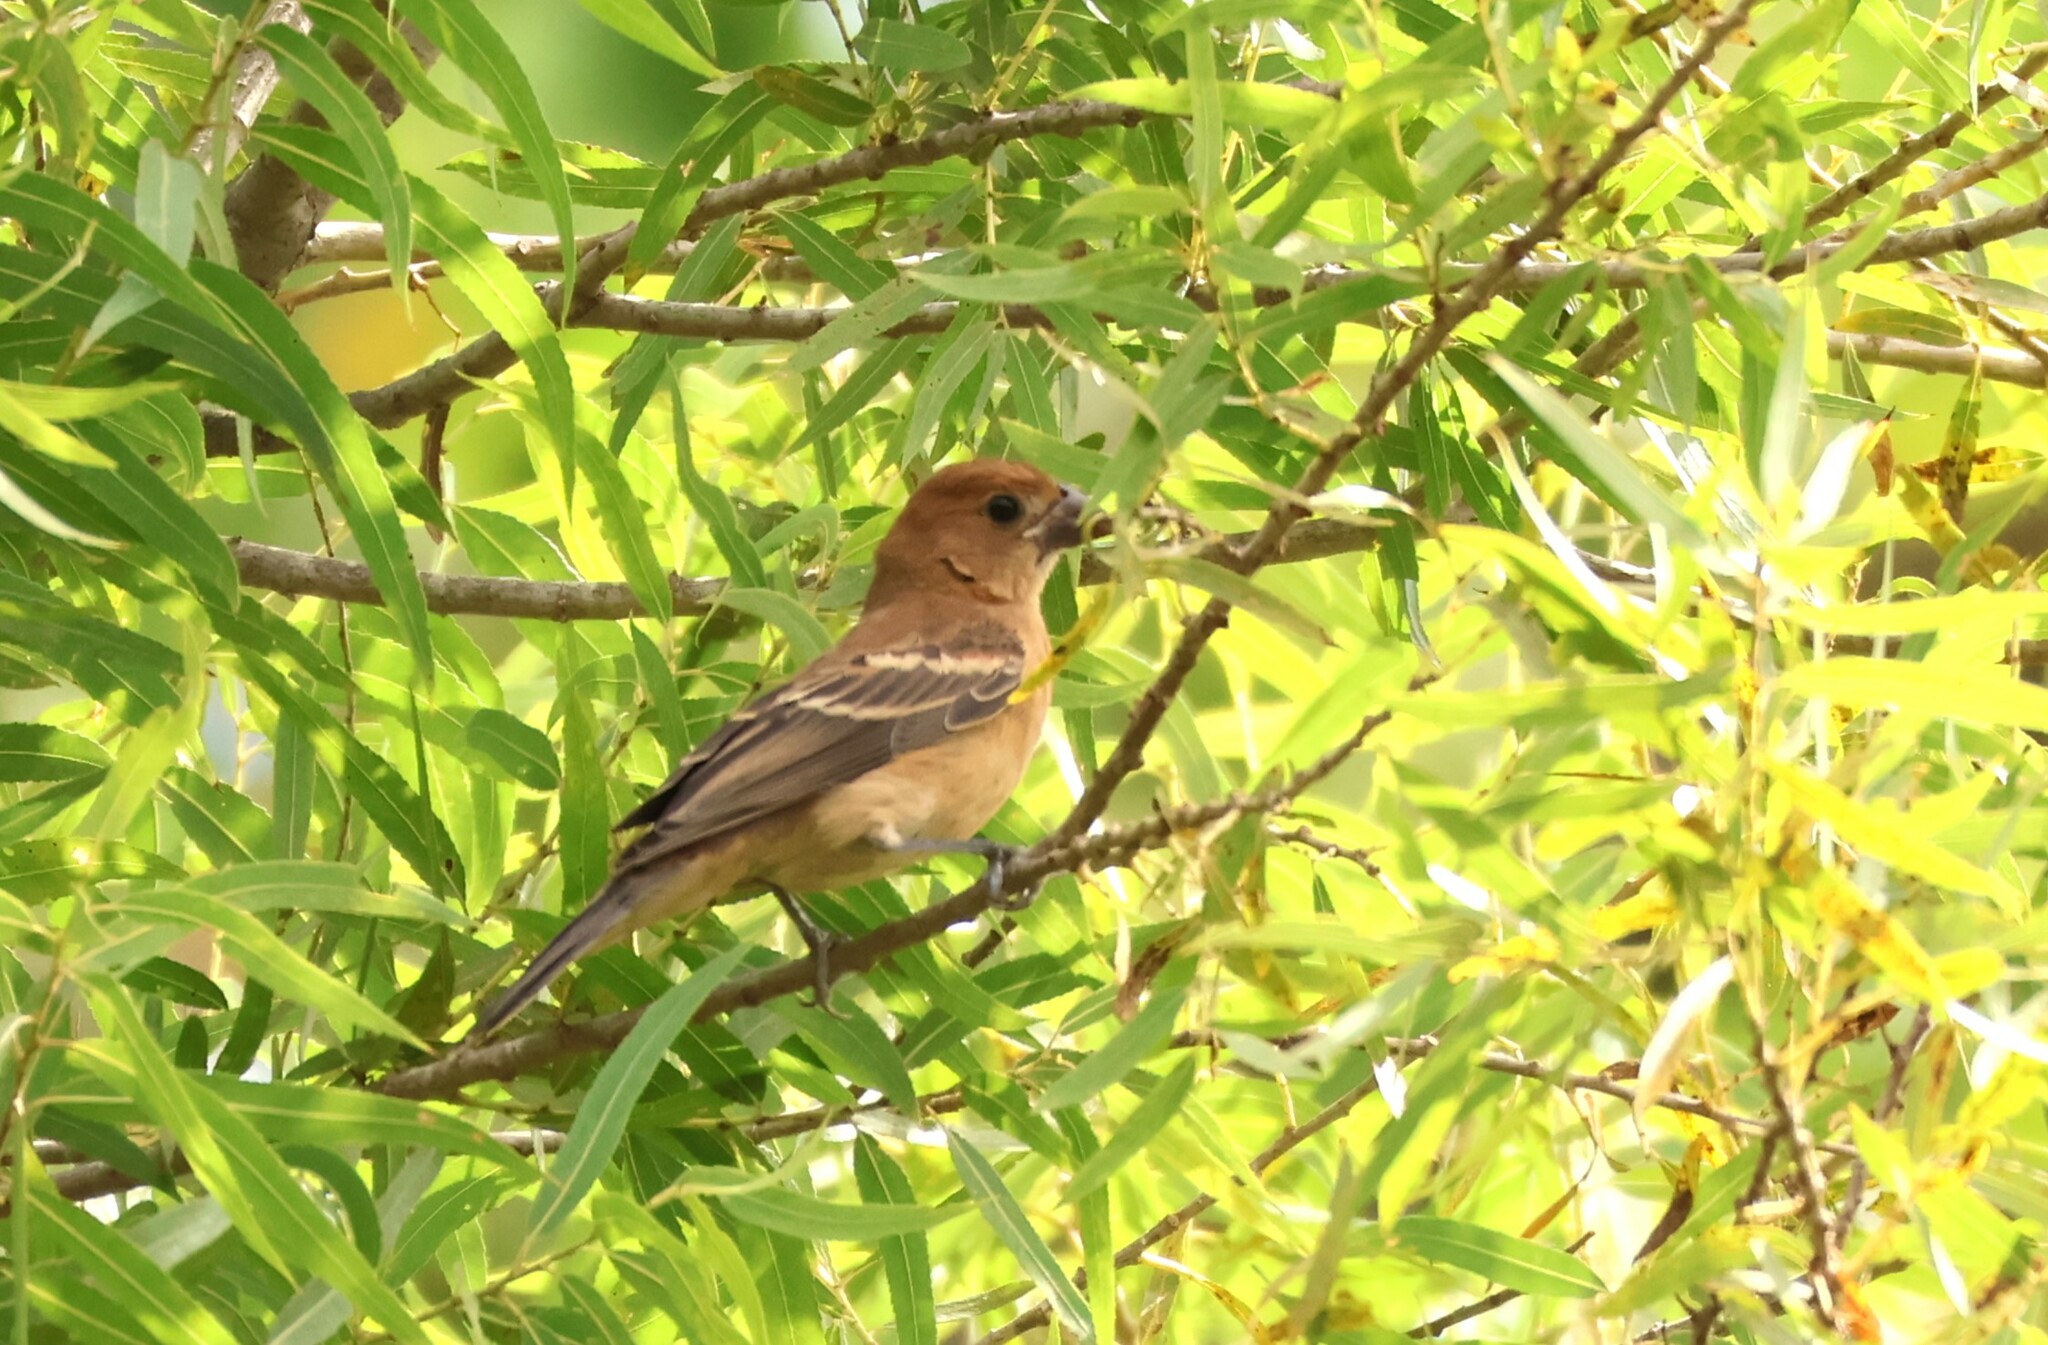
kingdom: Animalia
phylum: Chordata
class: Aves
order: Passeriformes
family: Cardinalidae
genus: Passerina
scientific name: Passerina caerulea
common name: Blue grosbeak
